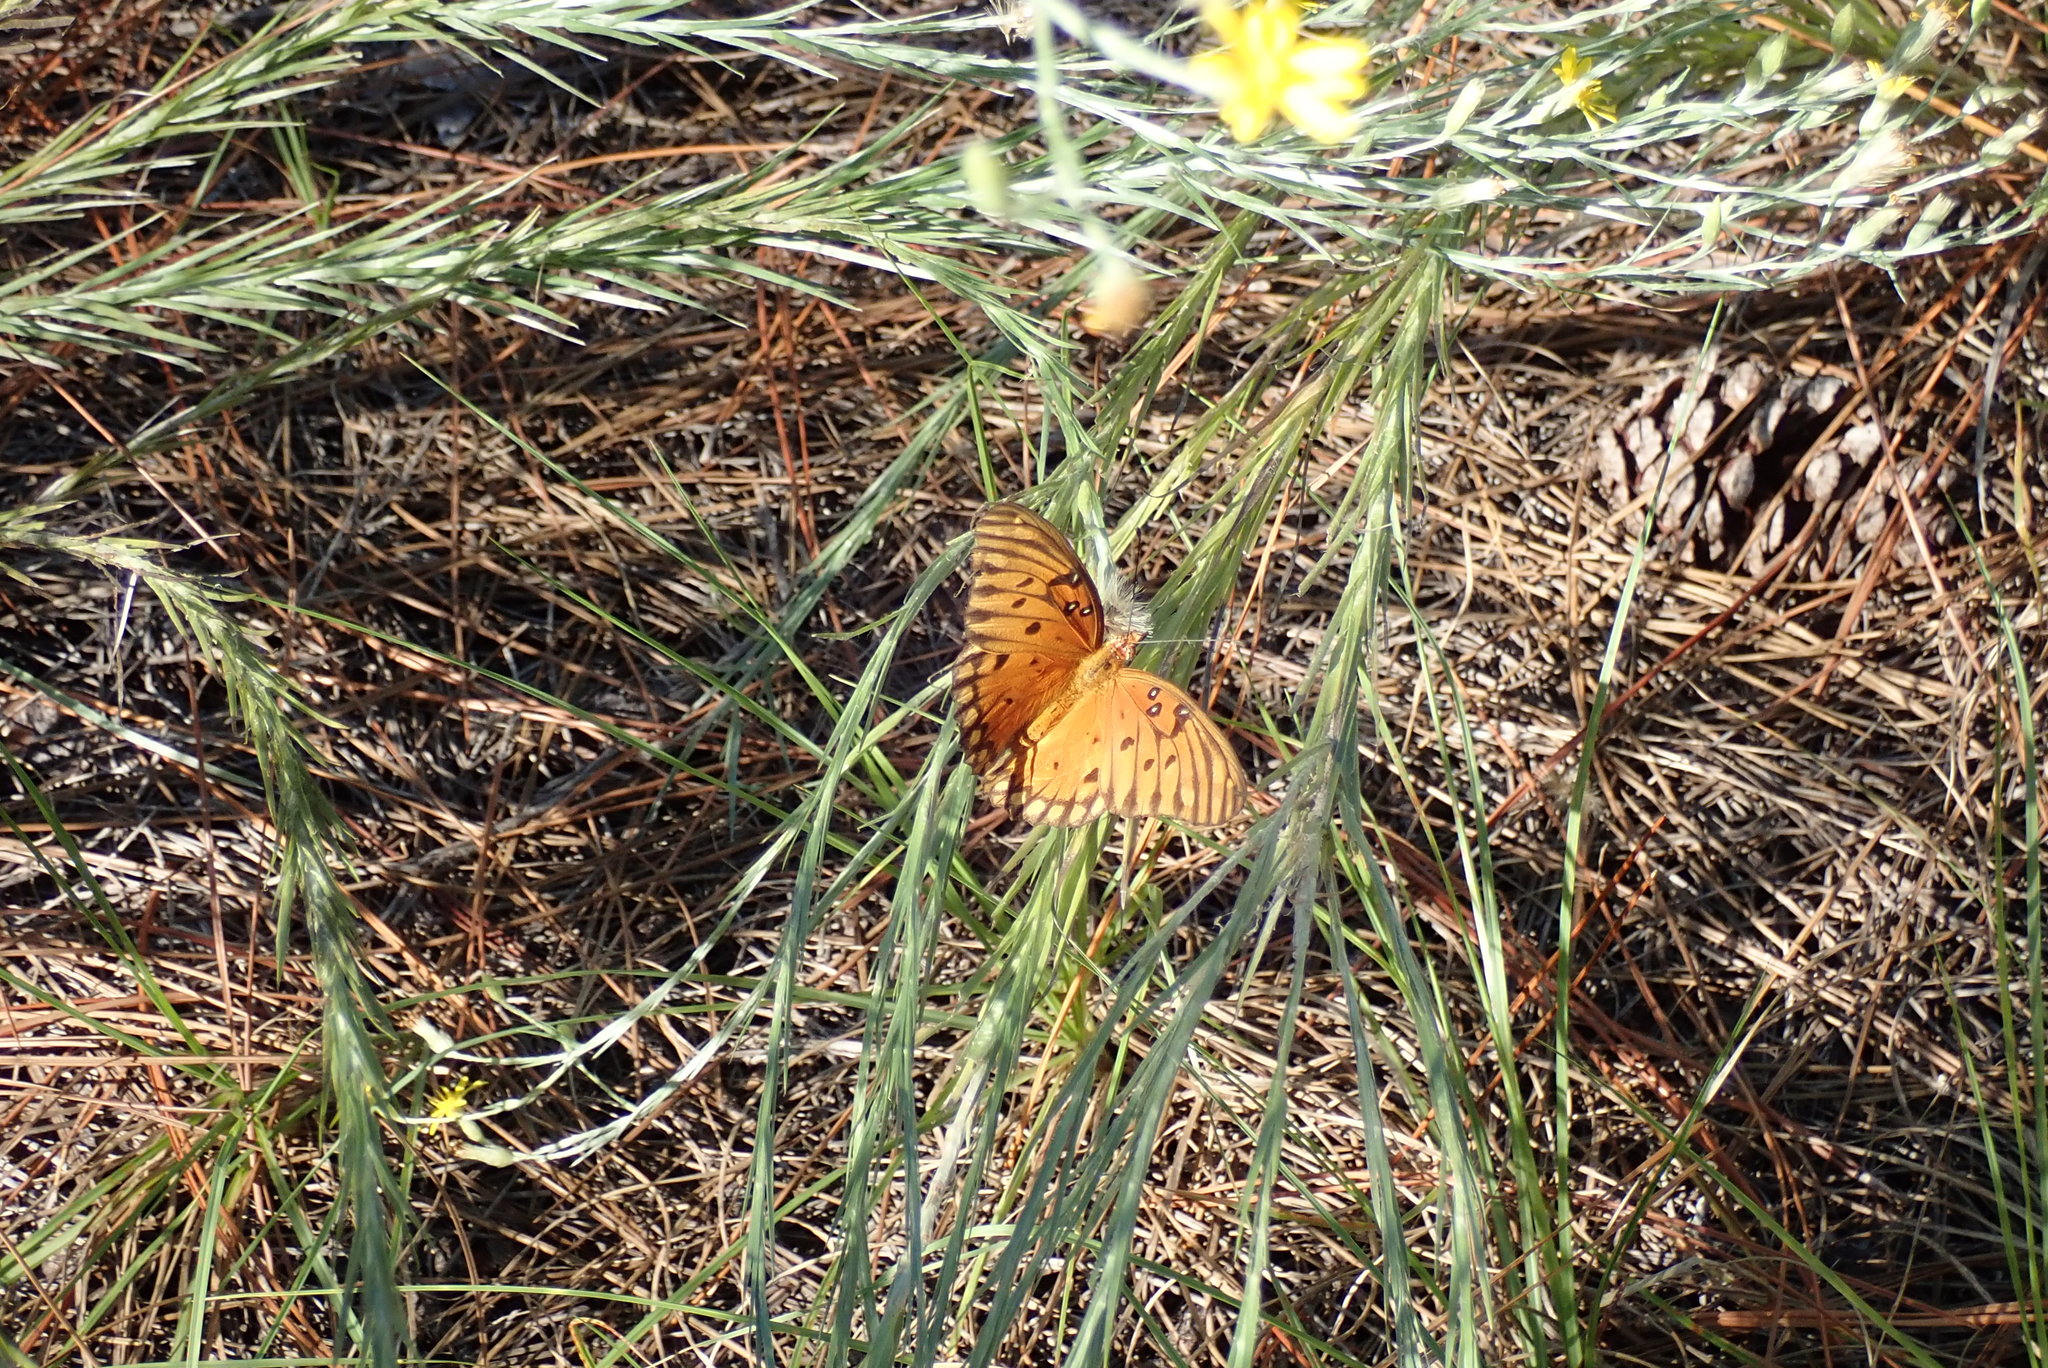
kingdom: Animalia
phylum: Arthropoda
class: Insecta
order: Lepidoptera
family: Nymphalidae
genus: Dione
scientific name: Dione vanillae
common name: Gulf fritillary
